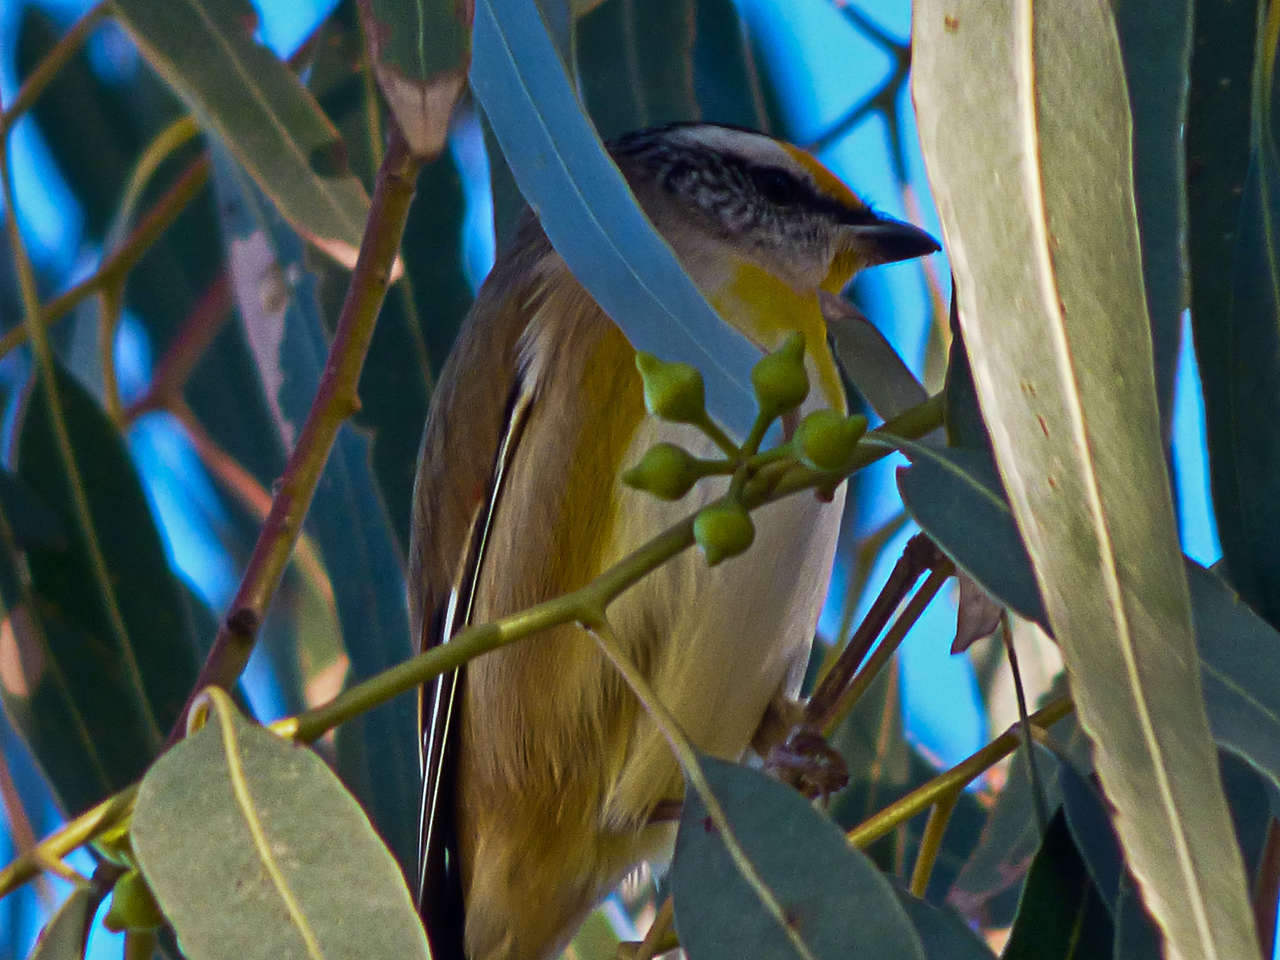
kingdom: Animalia
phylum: Chordata
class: Aves
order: Passeriformes
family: Pardalotidae
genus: Pardalotus
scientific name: Pardalotus striatus
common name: Striated pardalote
